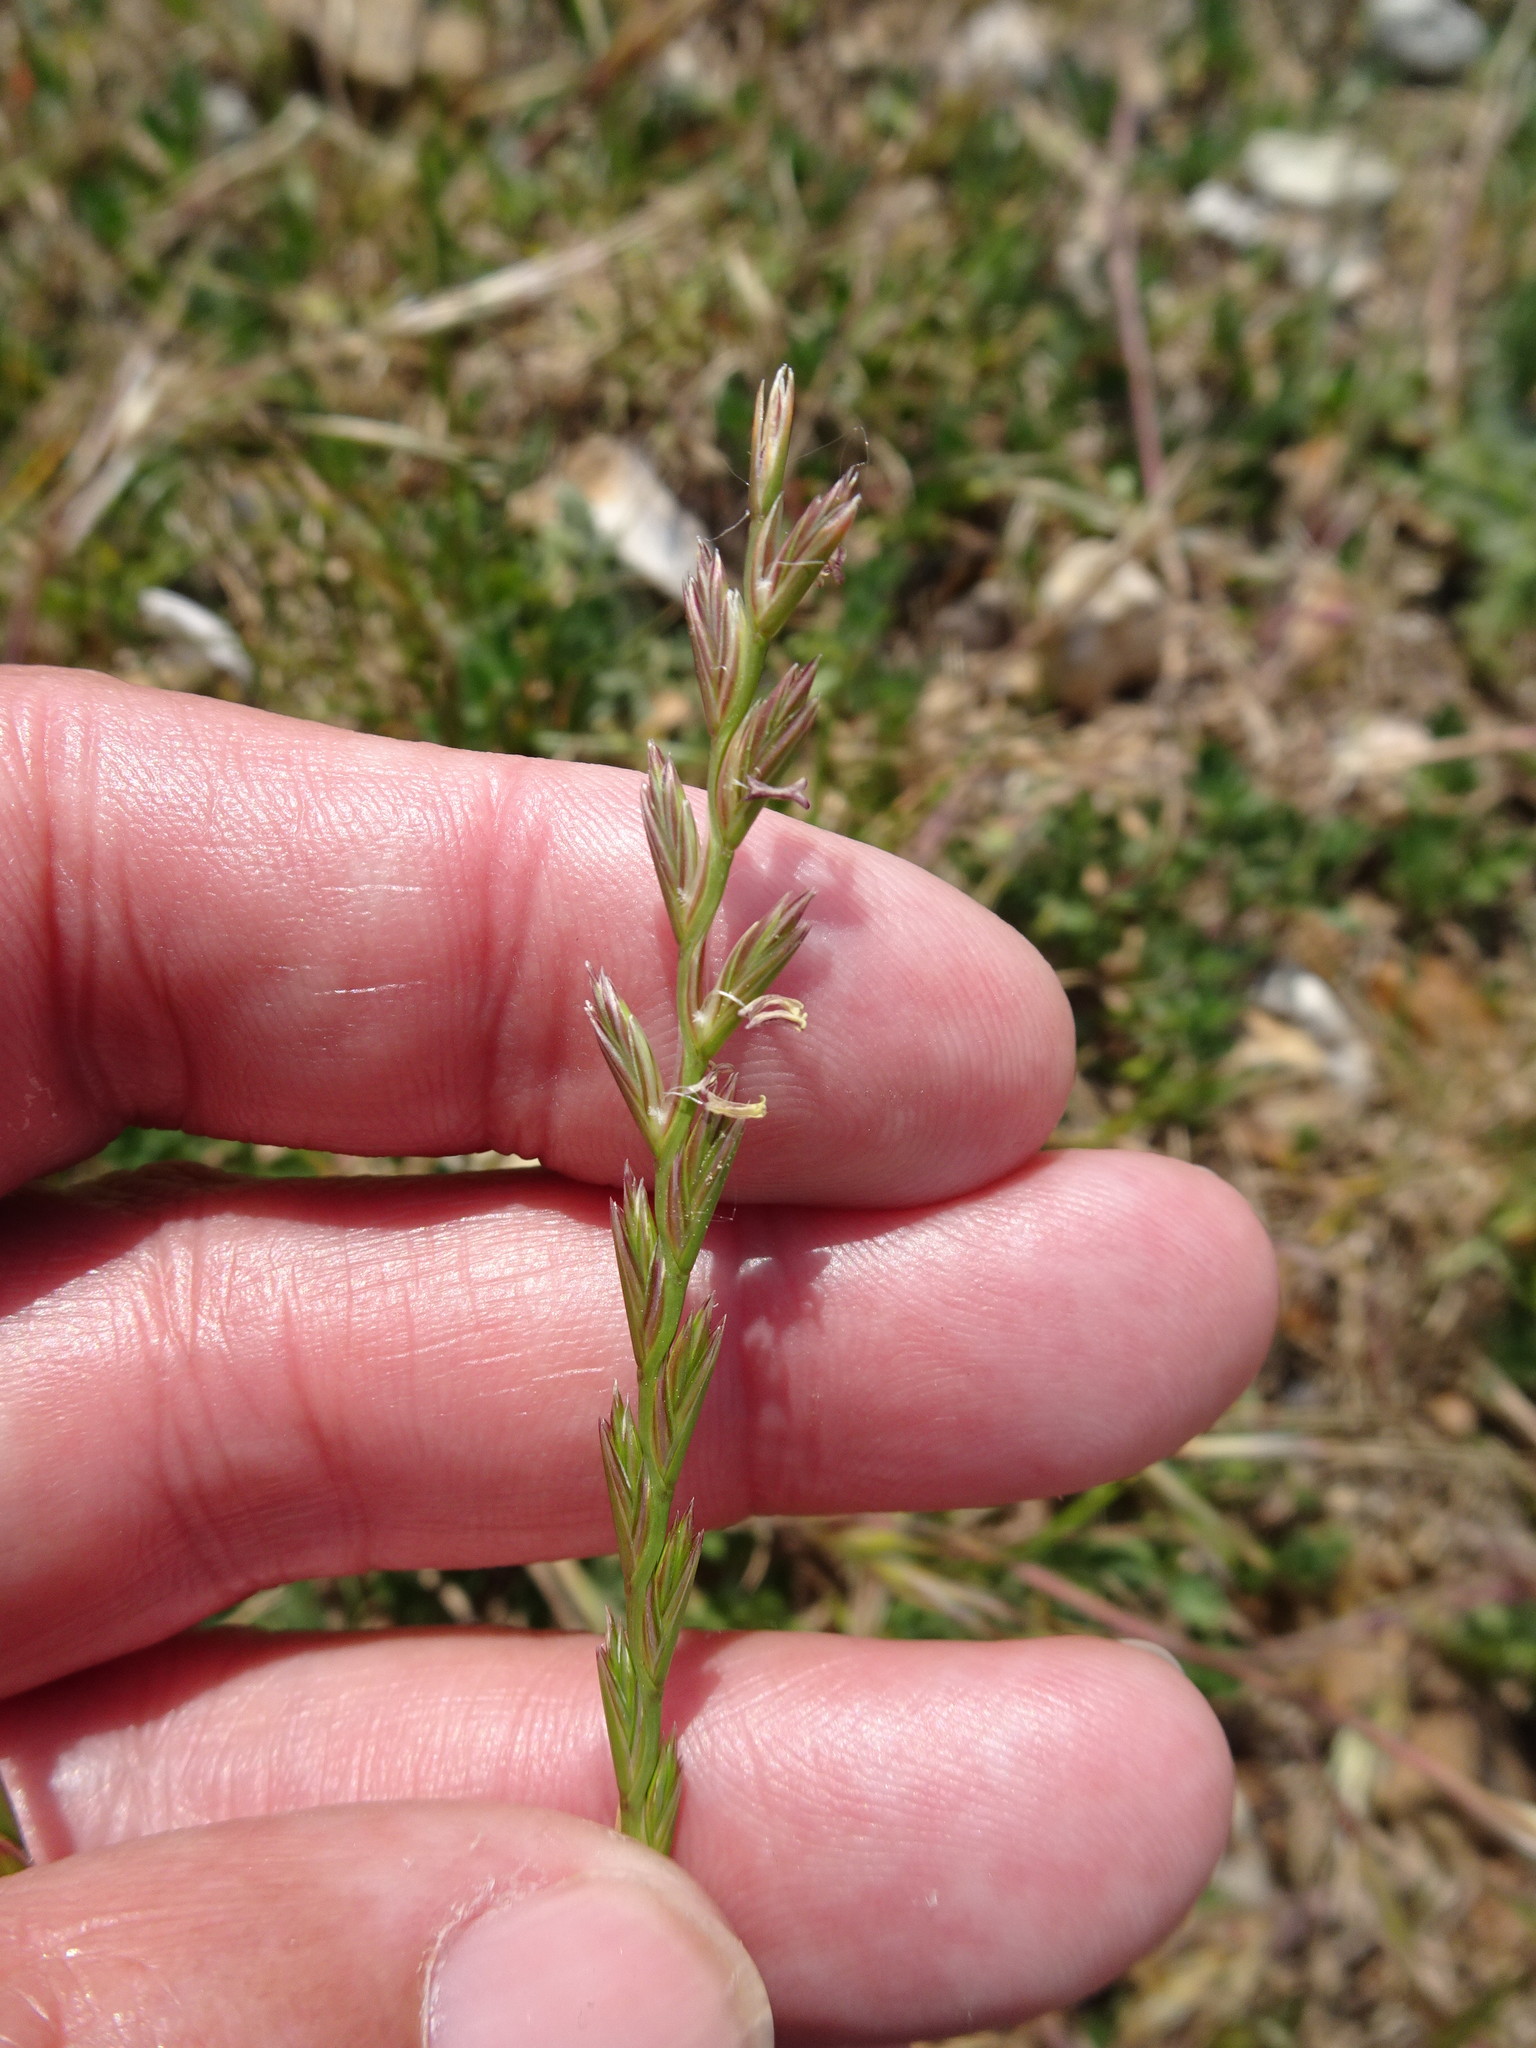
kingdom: Plantae
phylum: Tracheophyta
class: Liliopsida
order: Poales
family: Poaceae
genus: Lolium
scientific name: Lolium perenne
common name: Perennial ryegrass
